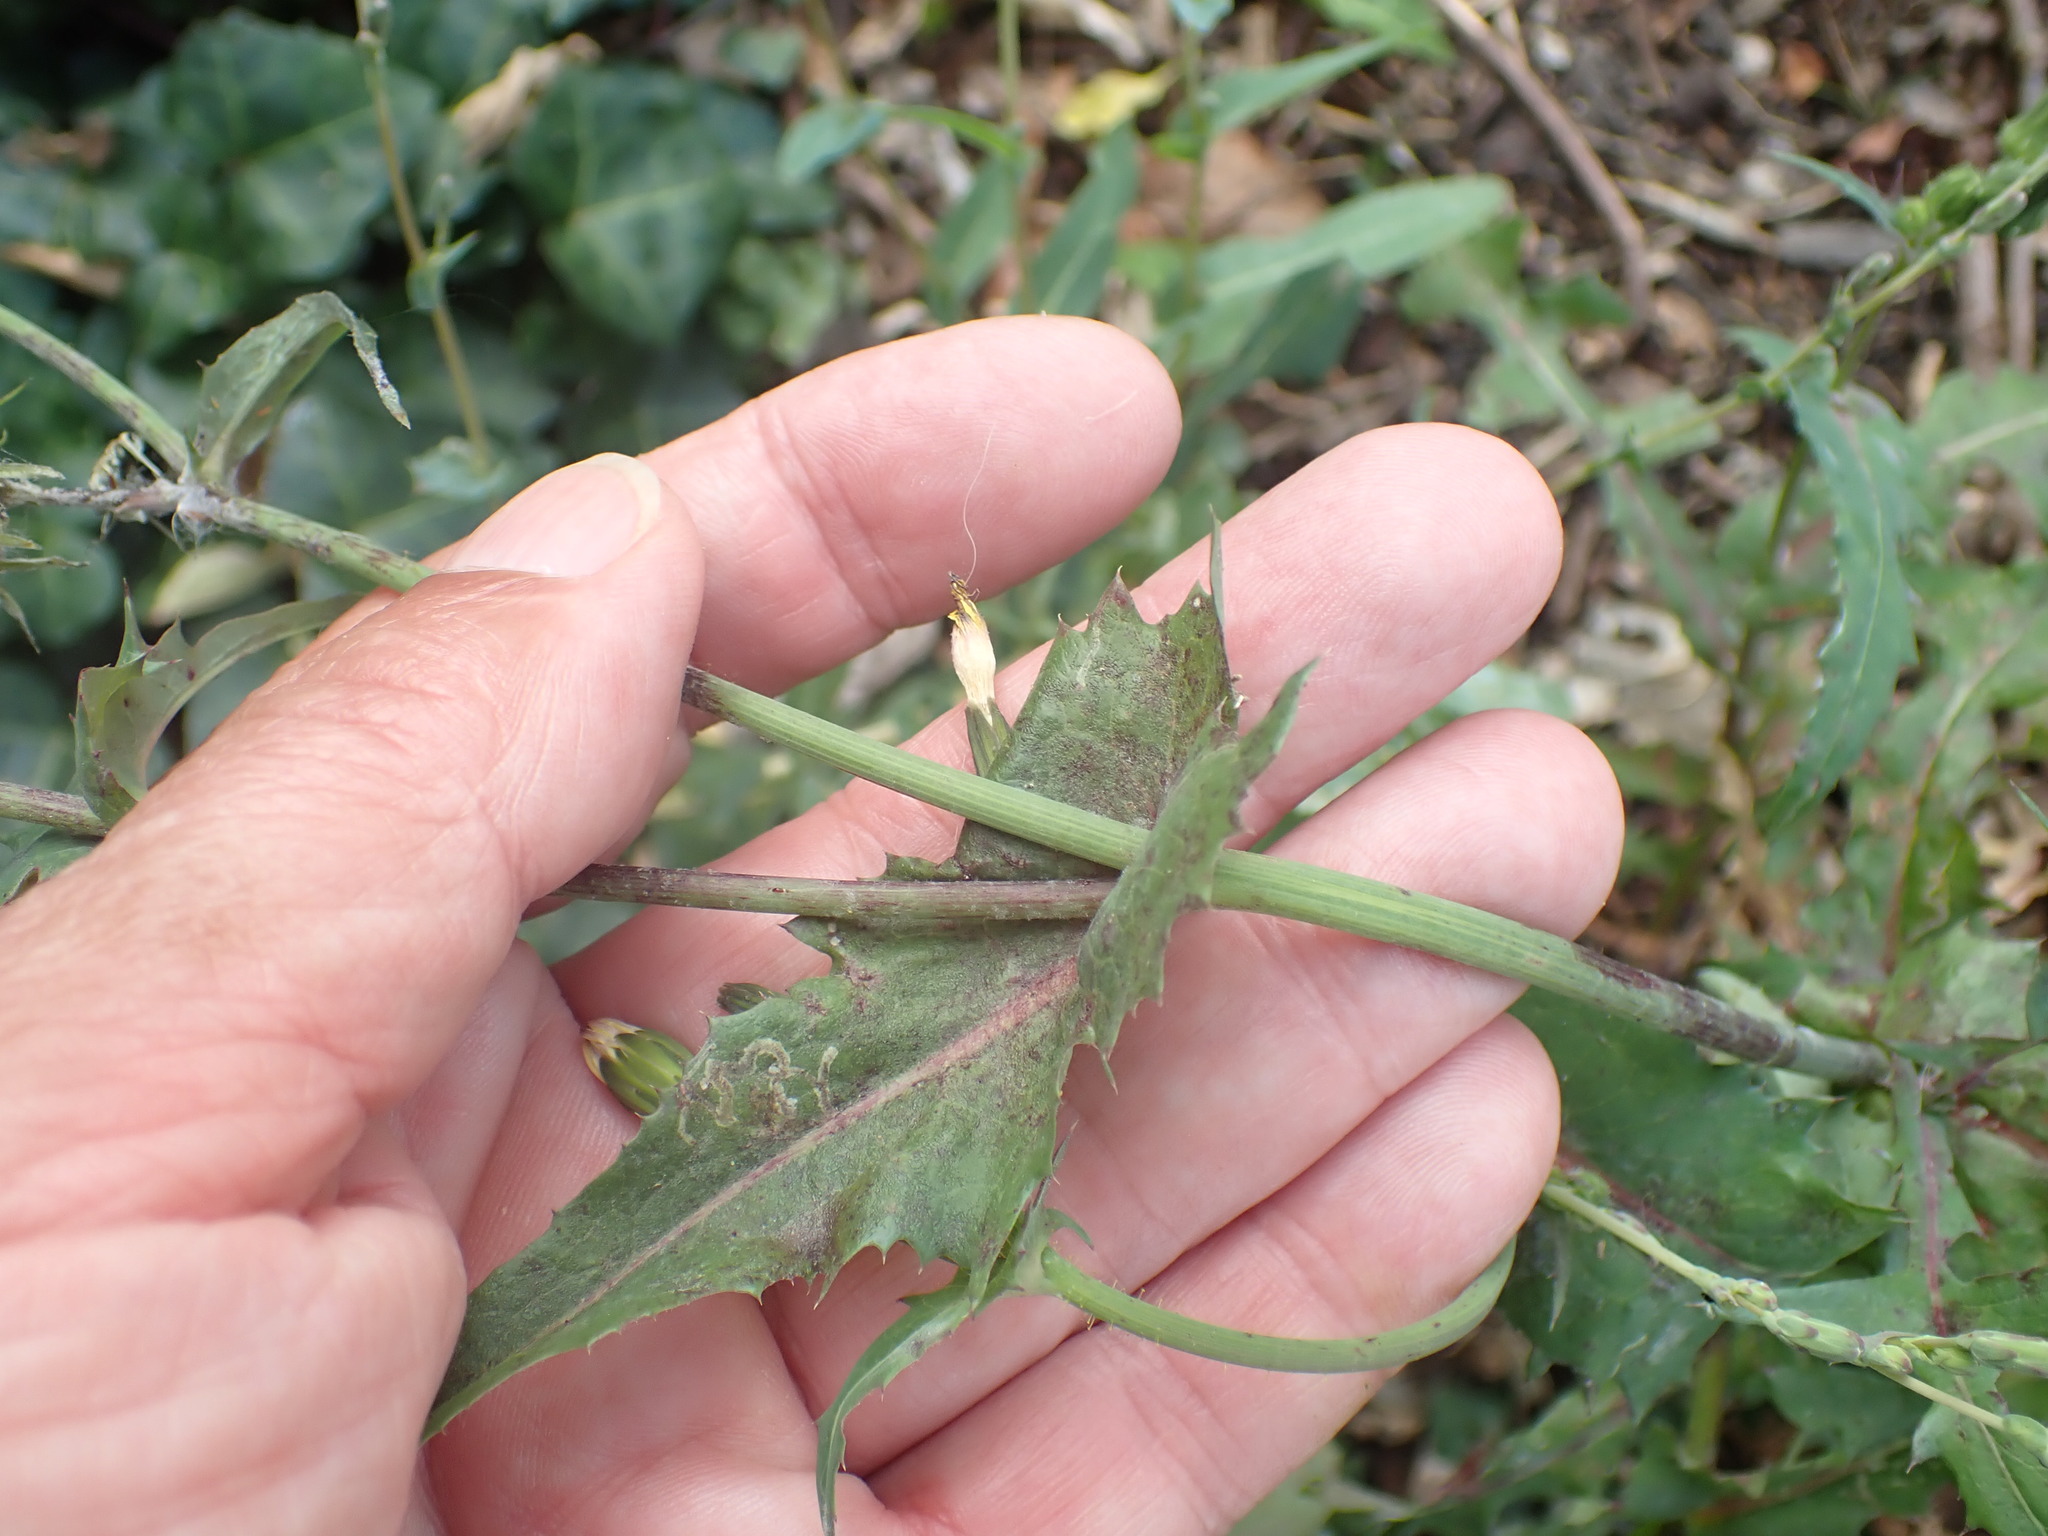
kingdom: Plantae
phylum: Tracheophyta
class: Magnoliopsida
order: Asterales
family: Asteraceae
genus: Sonchus
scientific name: Sonchus oleraceus
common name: Common sowthistle
